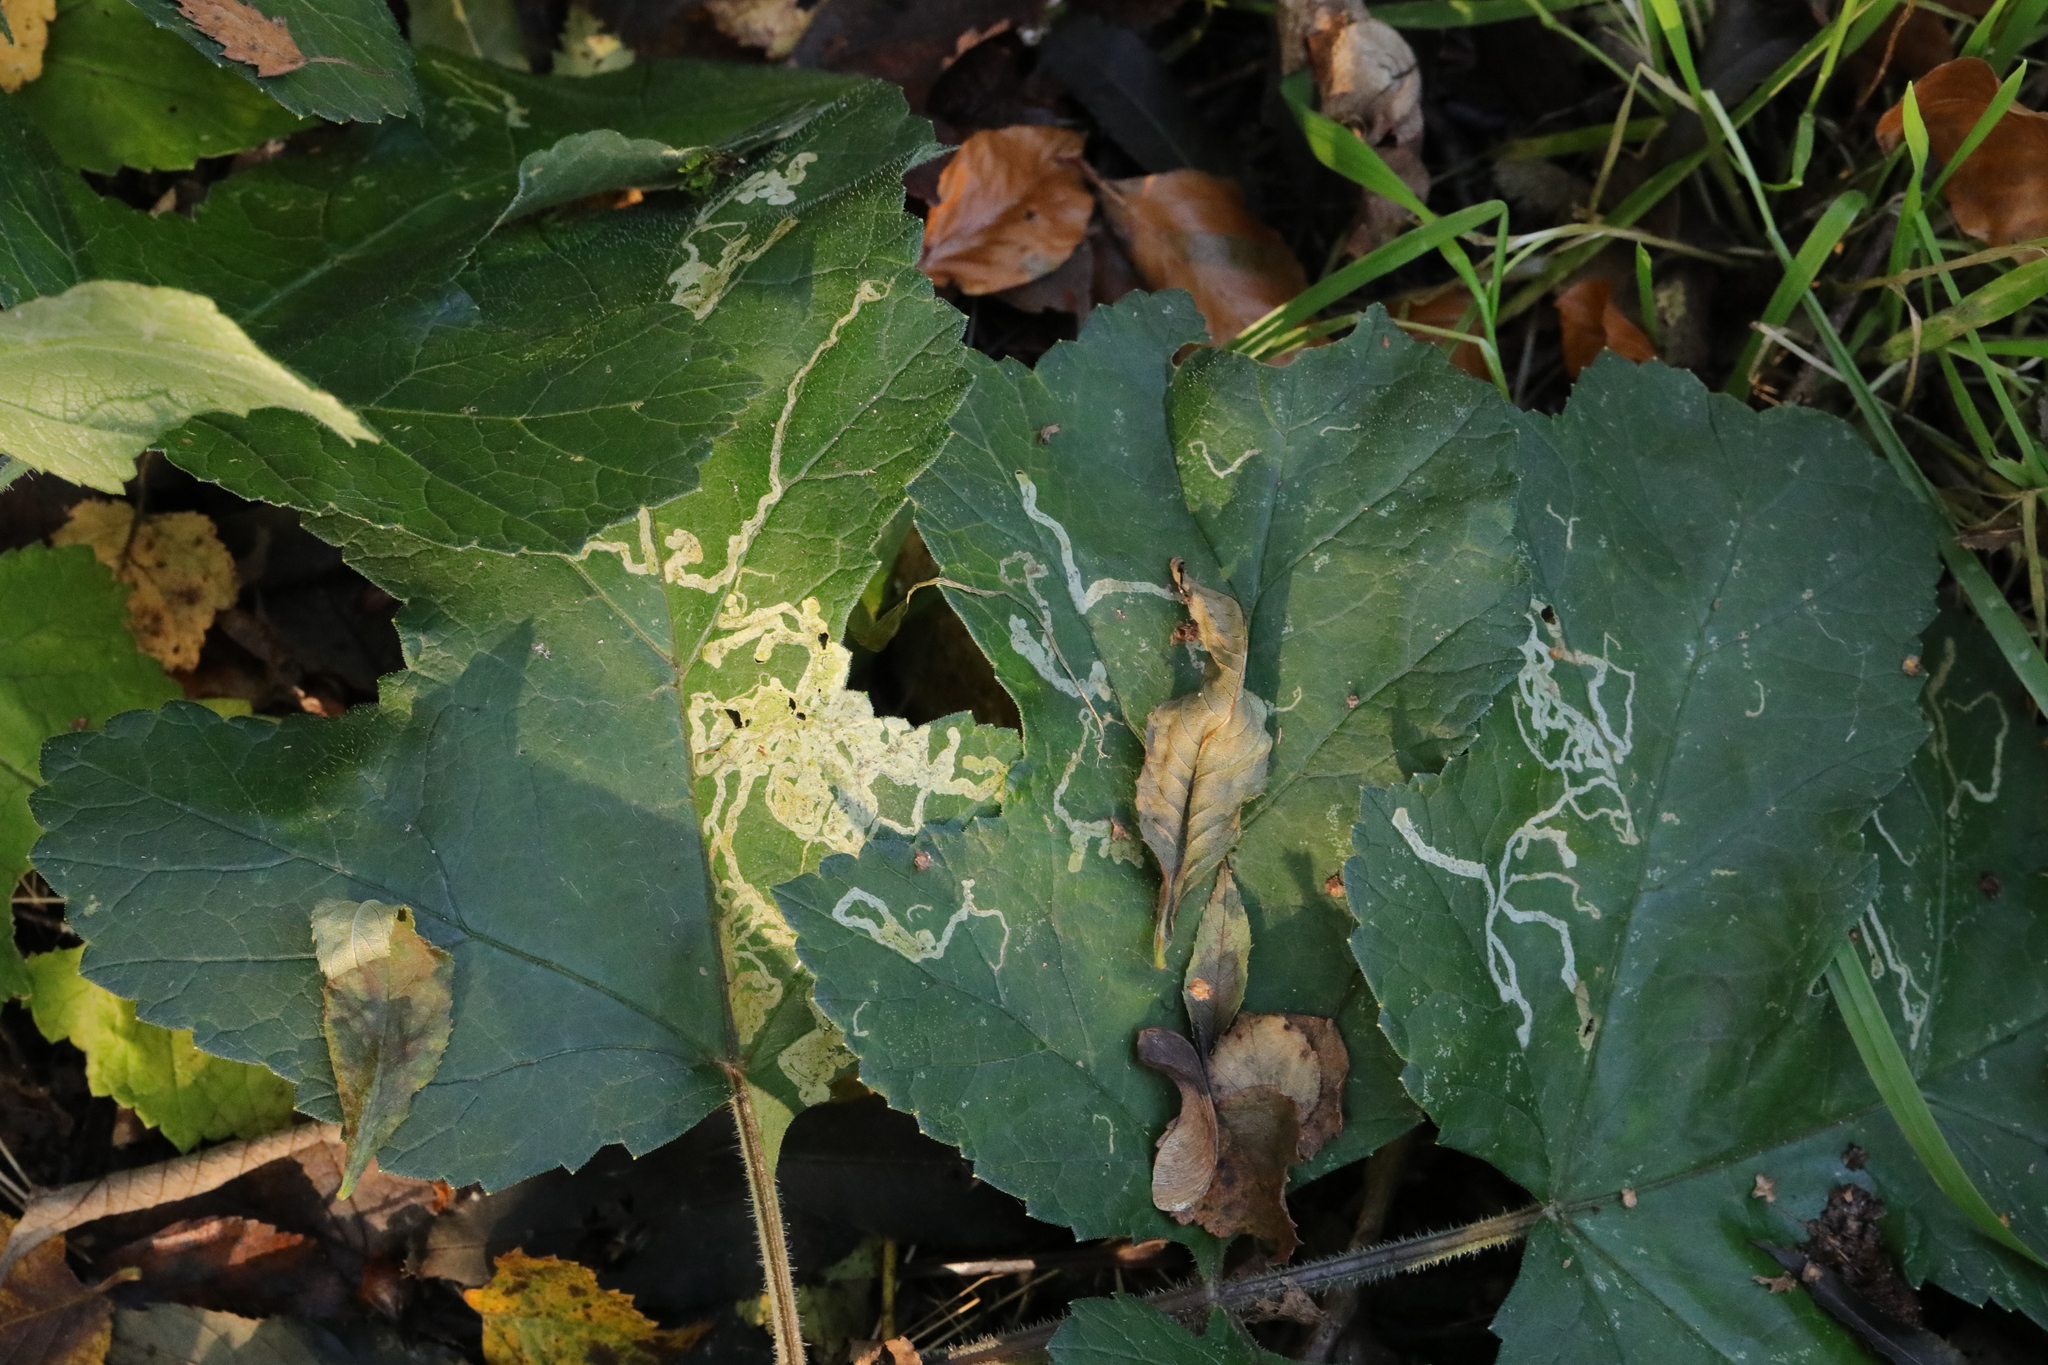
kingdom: Plantae
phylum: Tracheophyta
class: Magnoliopsida
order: Apiales
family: Apiaceae
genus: Heracleum
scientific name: Heracleum sphondylium
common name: Hogweed
